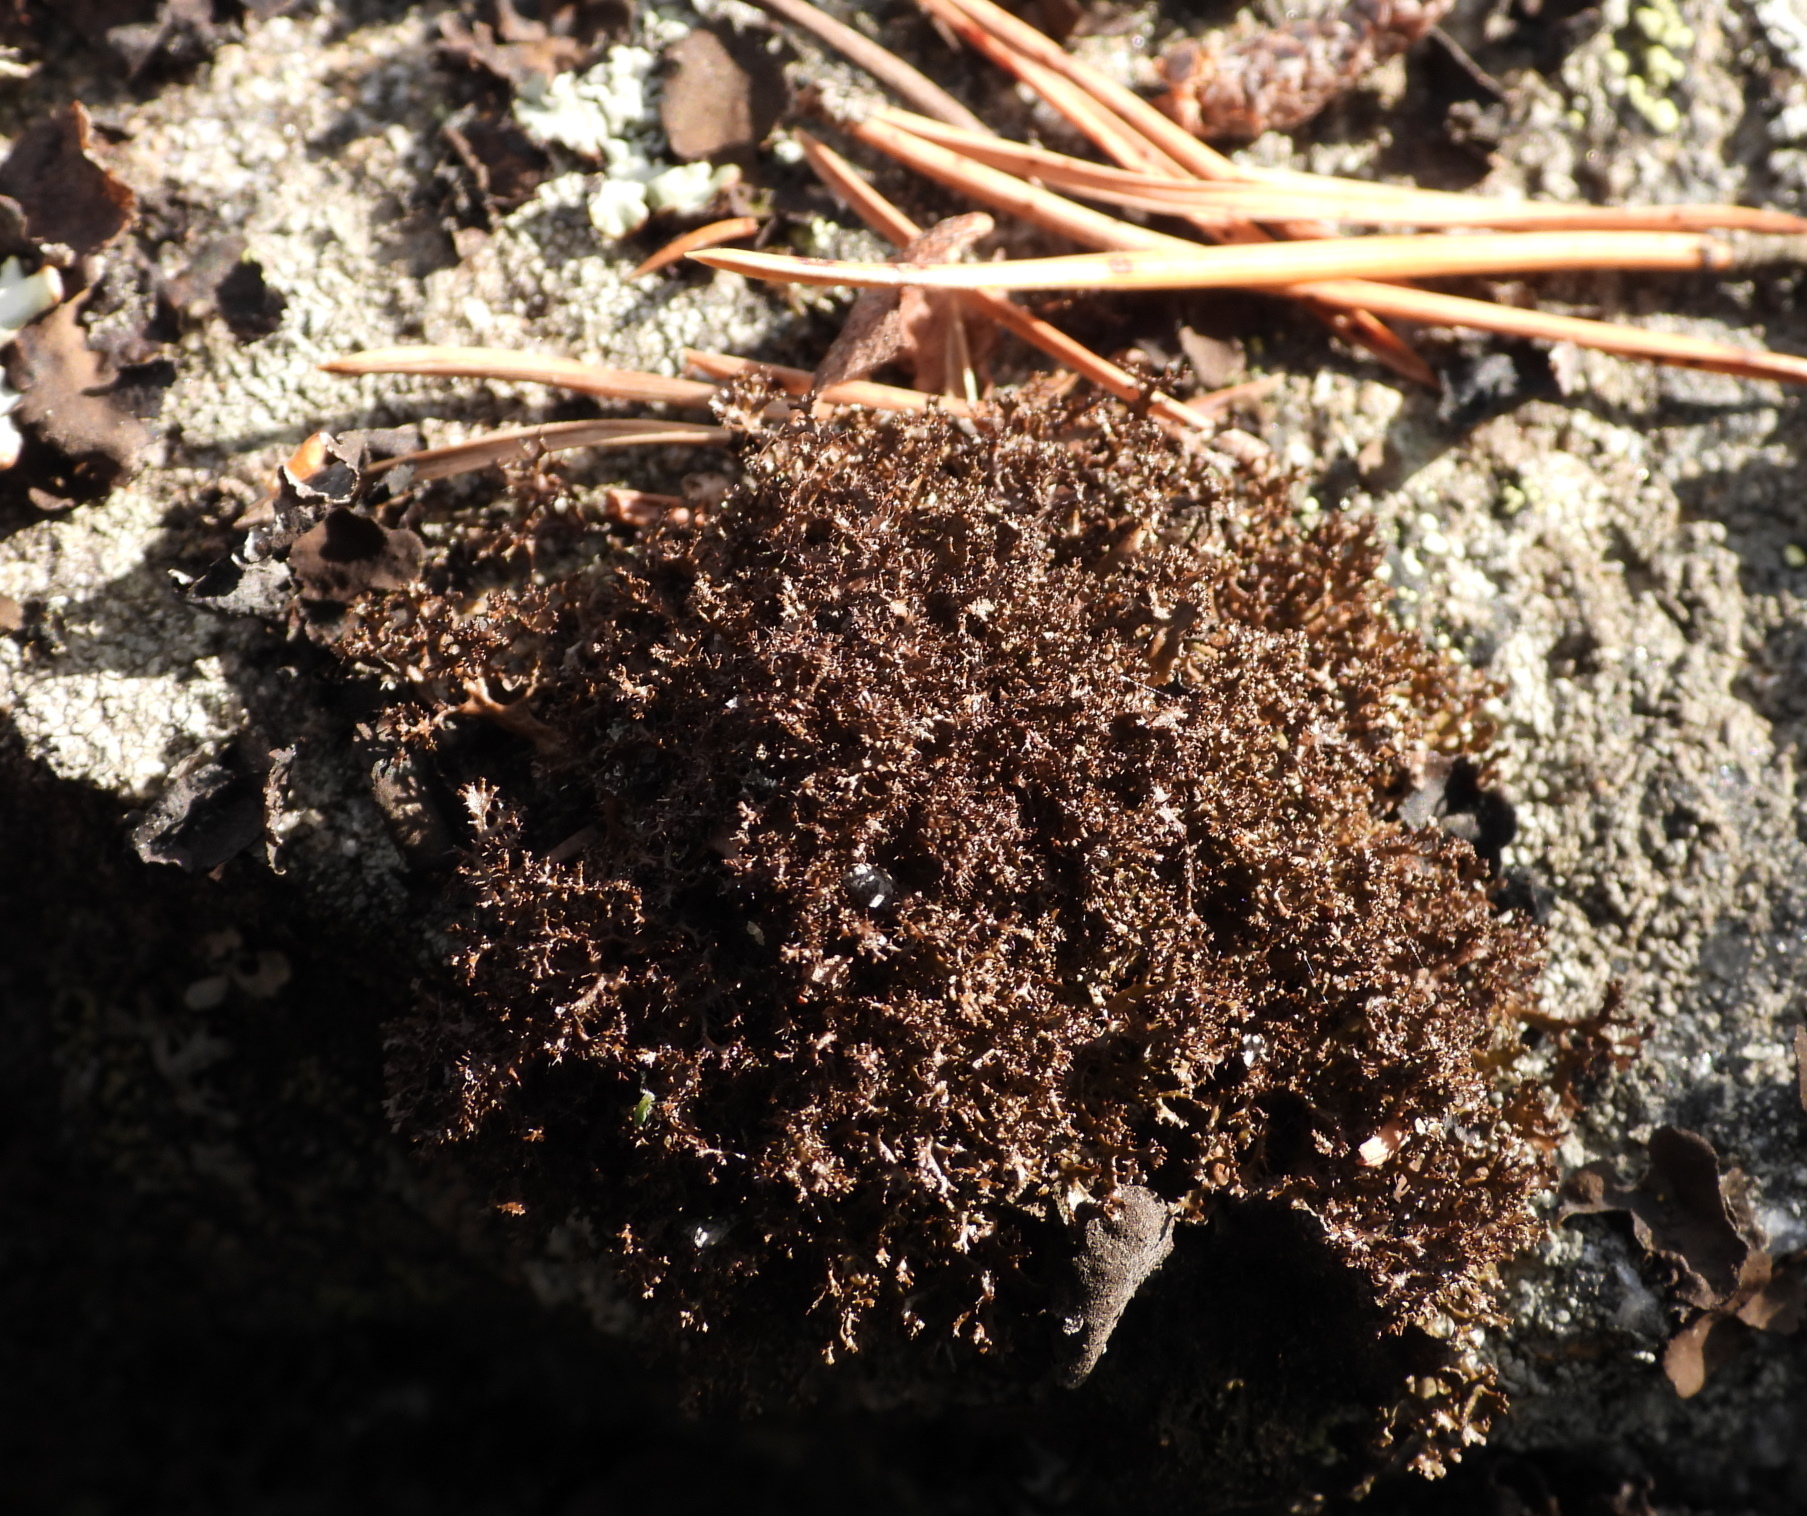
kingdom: Fungi
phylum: Ascomycota
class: Lecanoromycetes
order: Lecanorales
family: Parmeliaceae
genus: Cetraria
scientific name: Cetraria odontella
